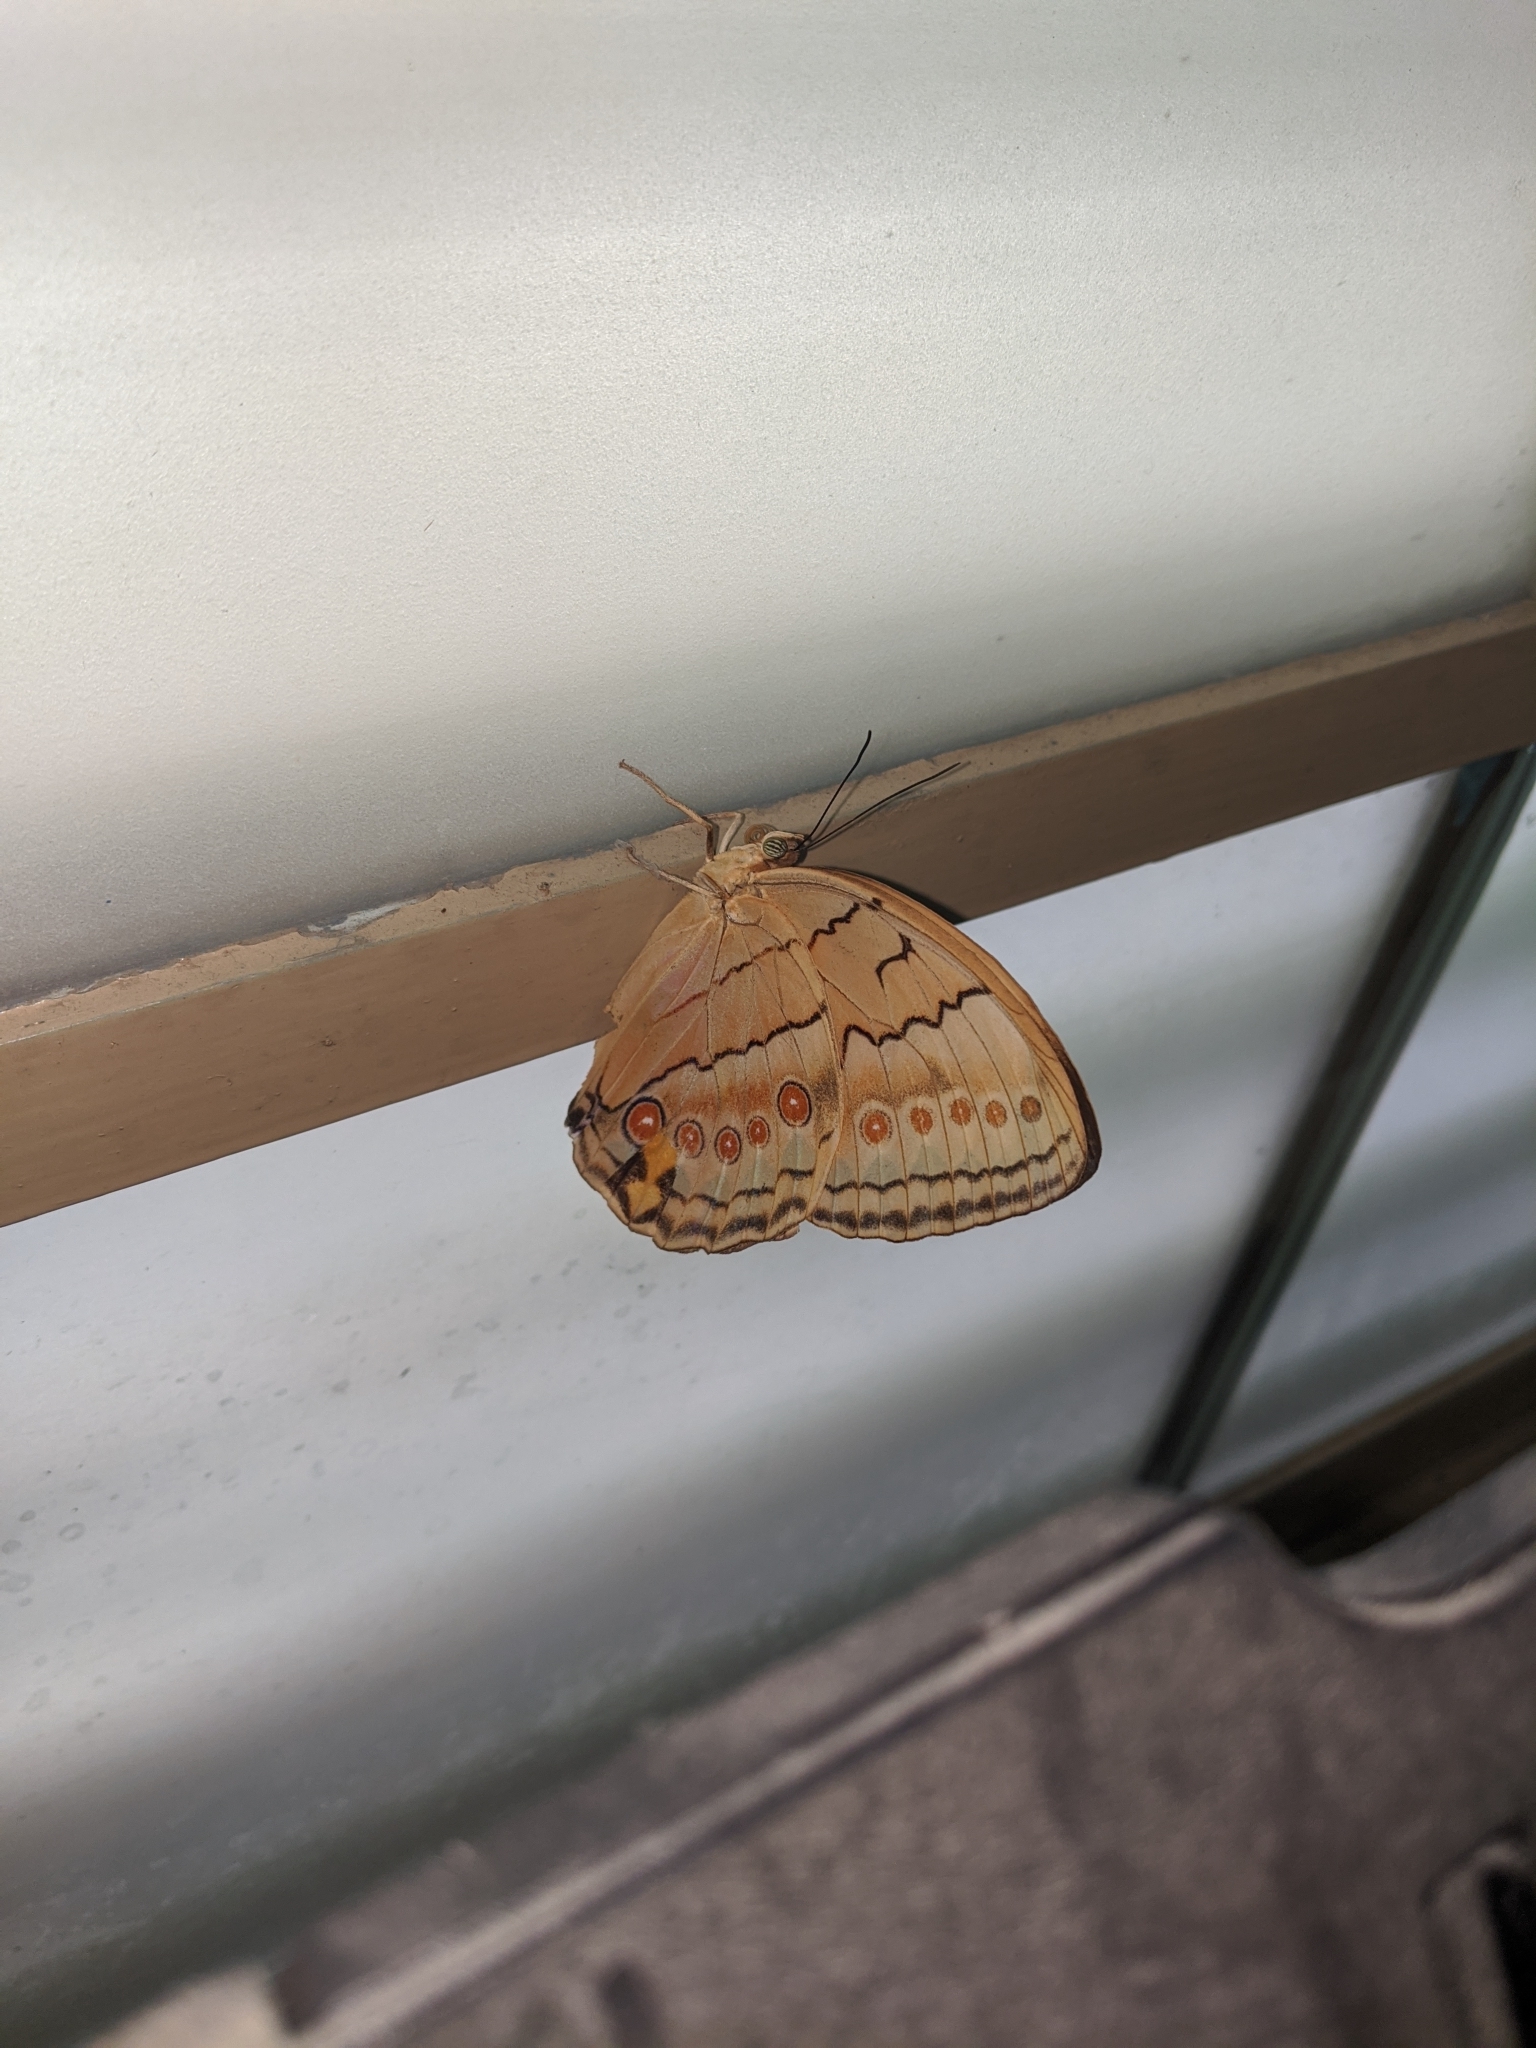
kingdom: Animalia
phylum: Arthropoda
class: Insecta
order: Lepidoptera
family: Nymphalidae
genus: Stichophthalma
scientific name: Stichophthalma howqua
